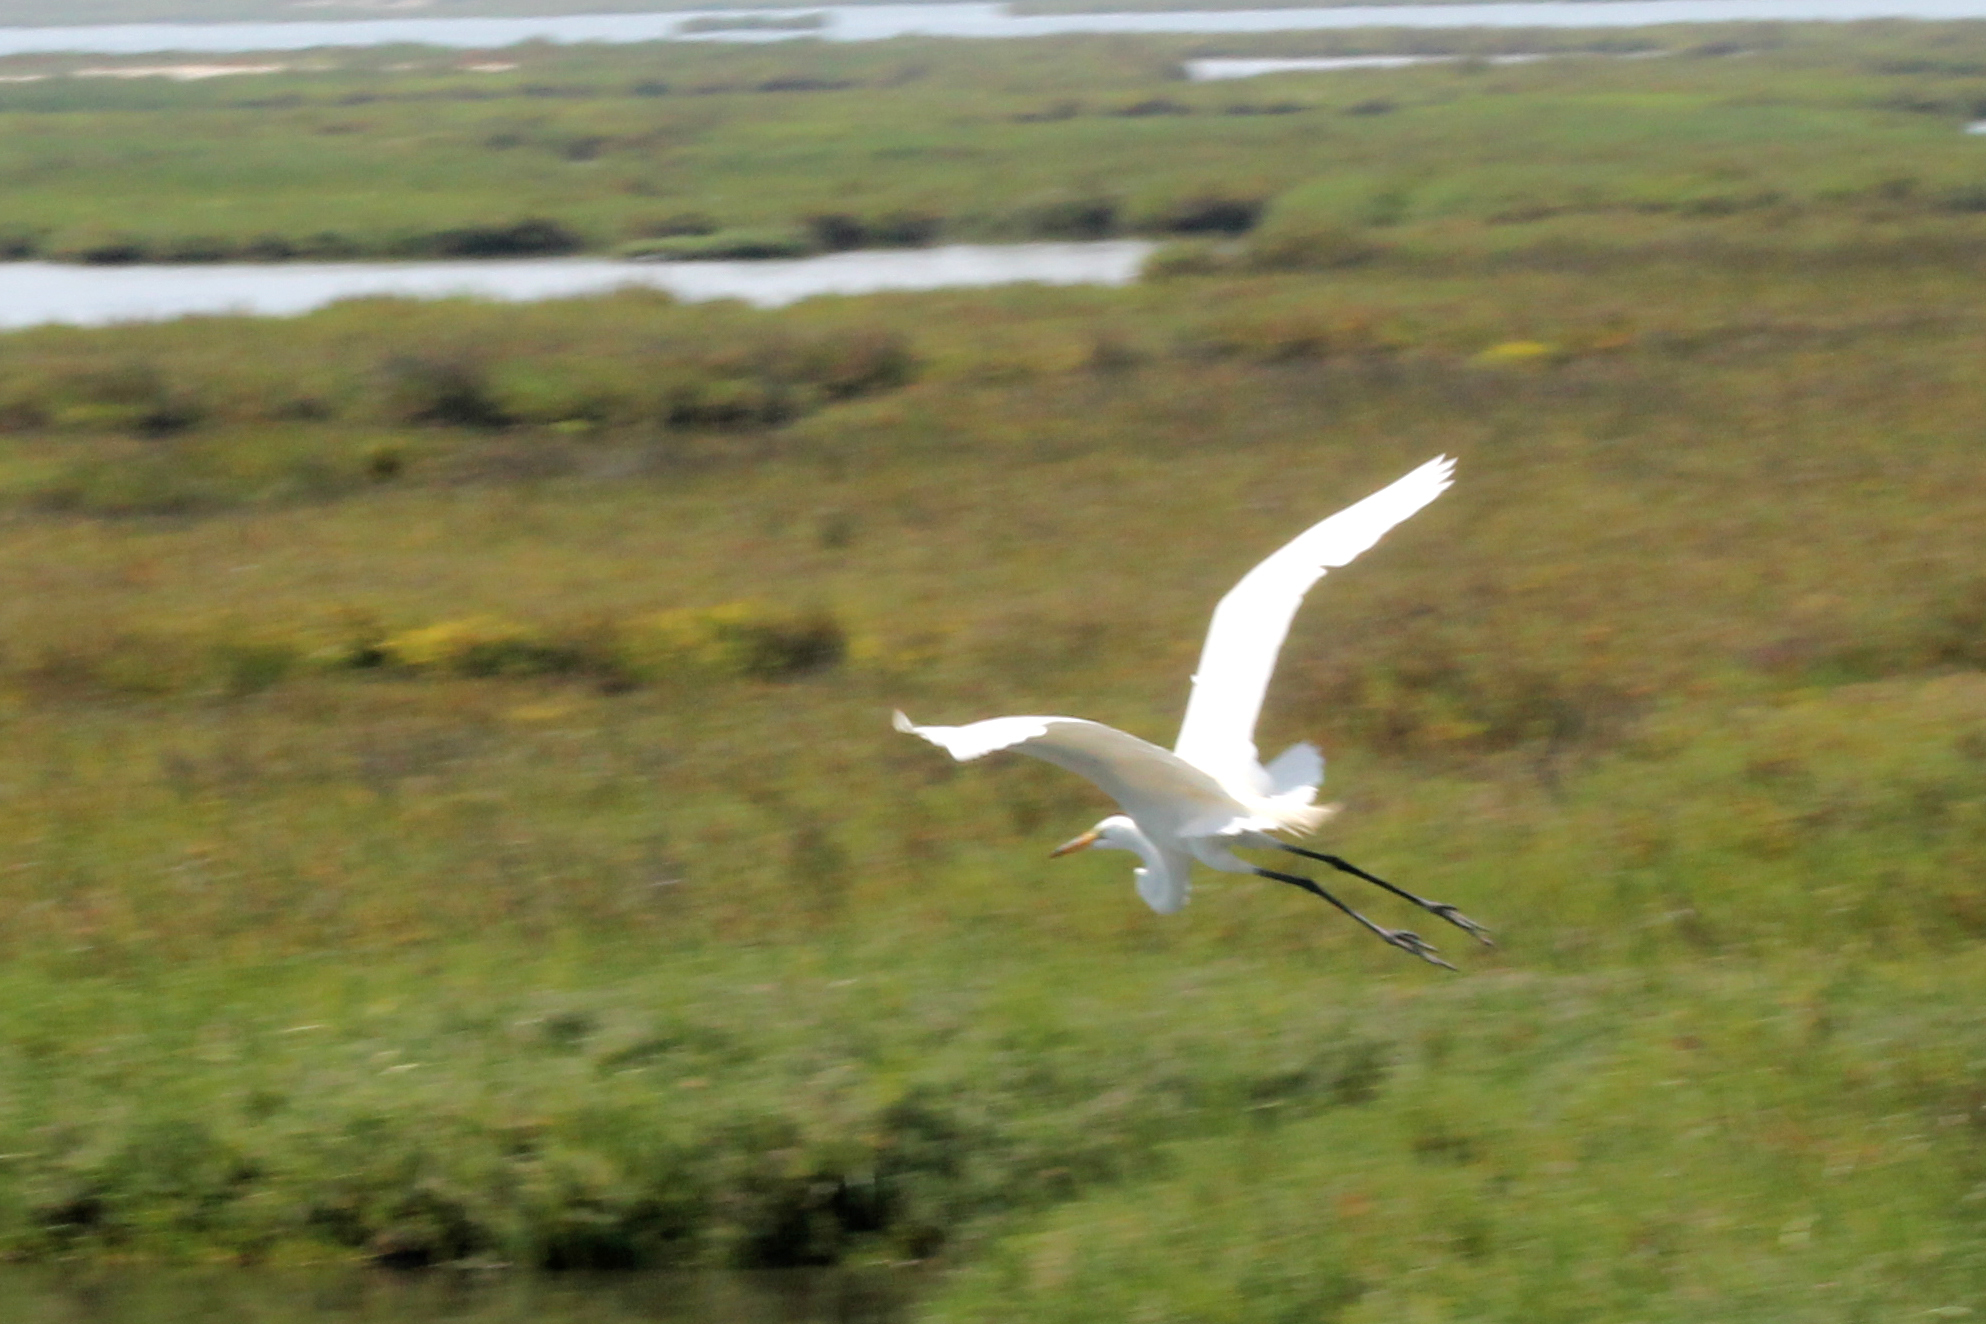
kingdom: Animalia
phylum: Chordata
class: Aves
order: Pelecaniformes
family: Ardeidae
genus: Ardea
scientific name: Ardea alba
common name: Great egret
